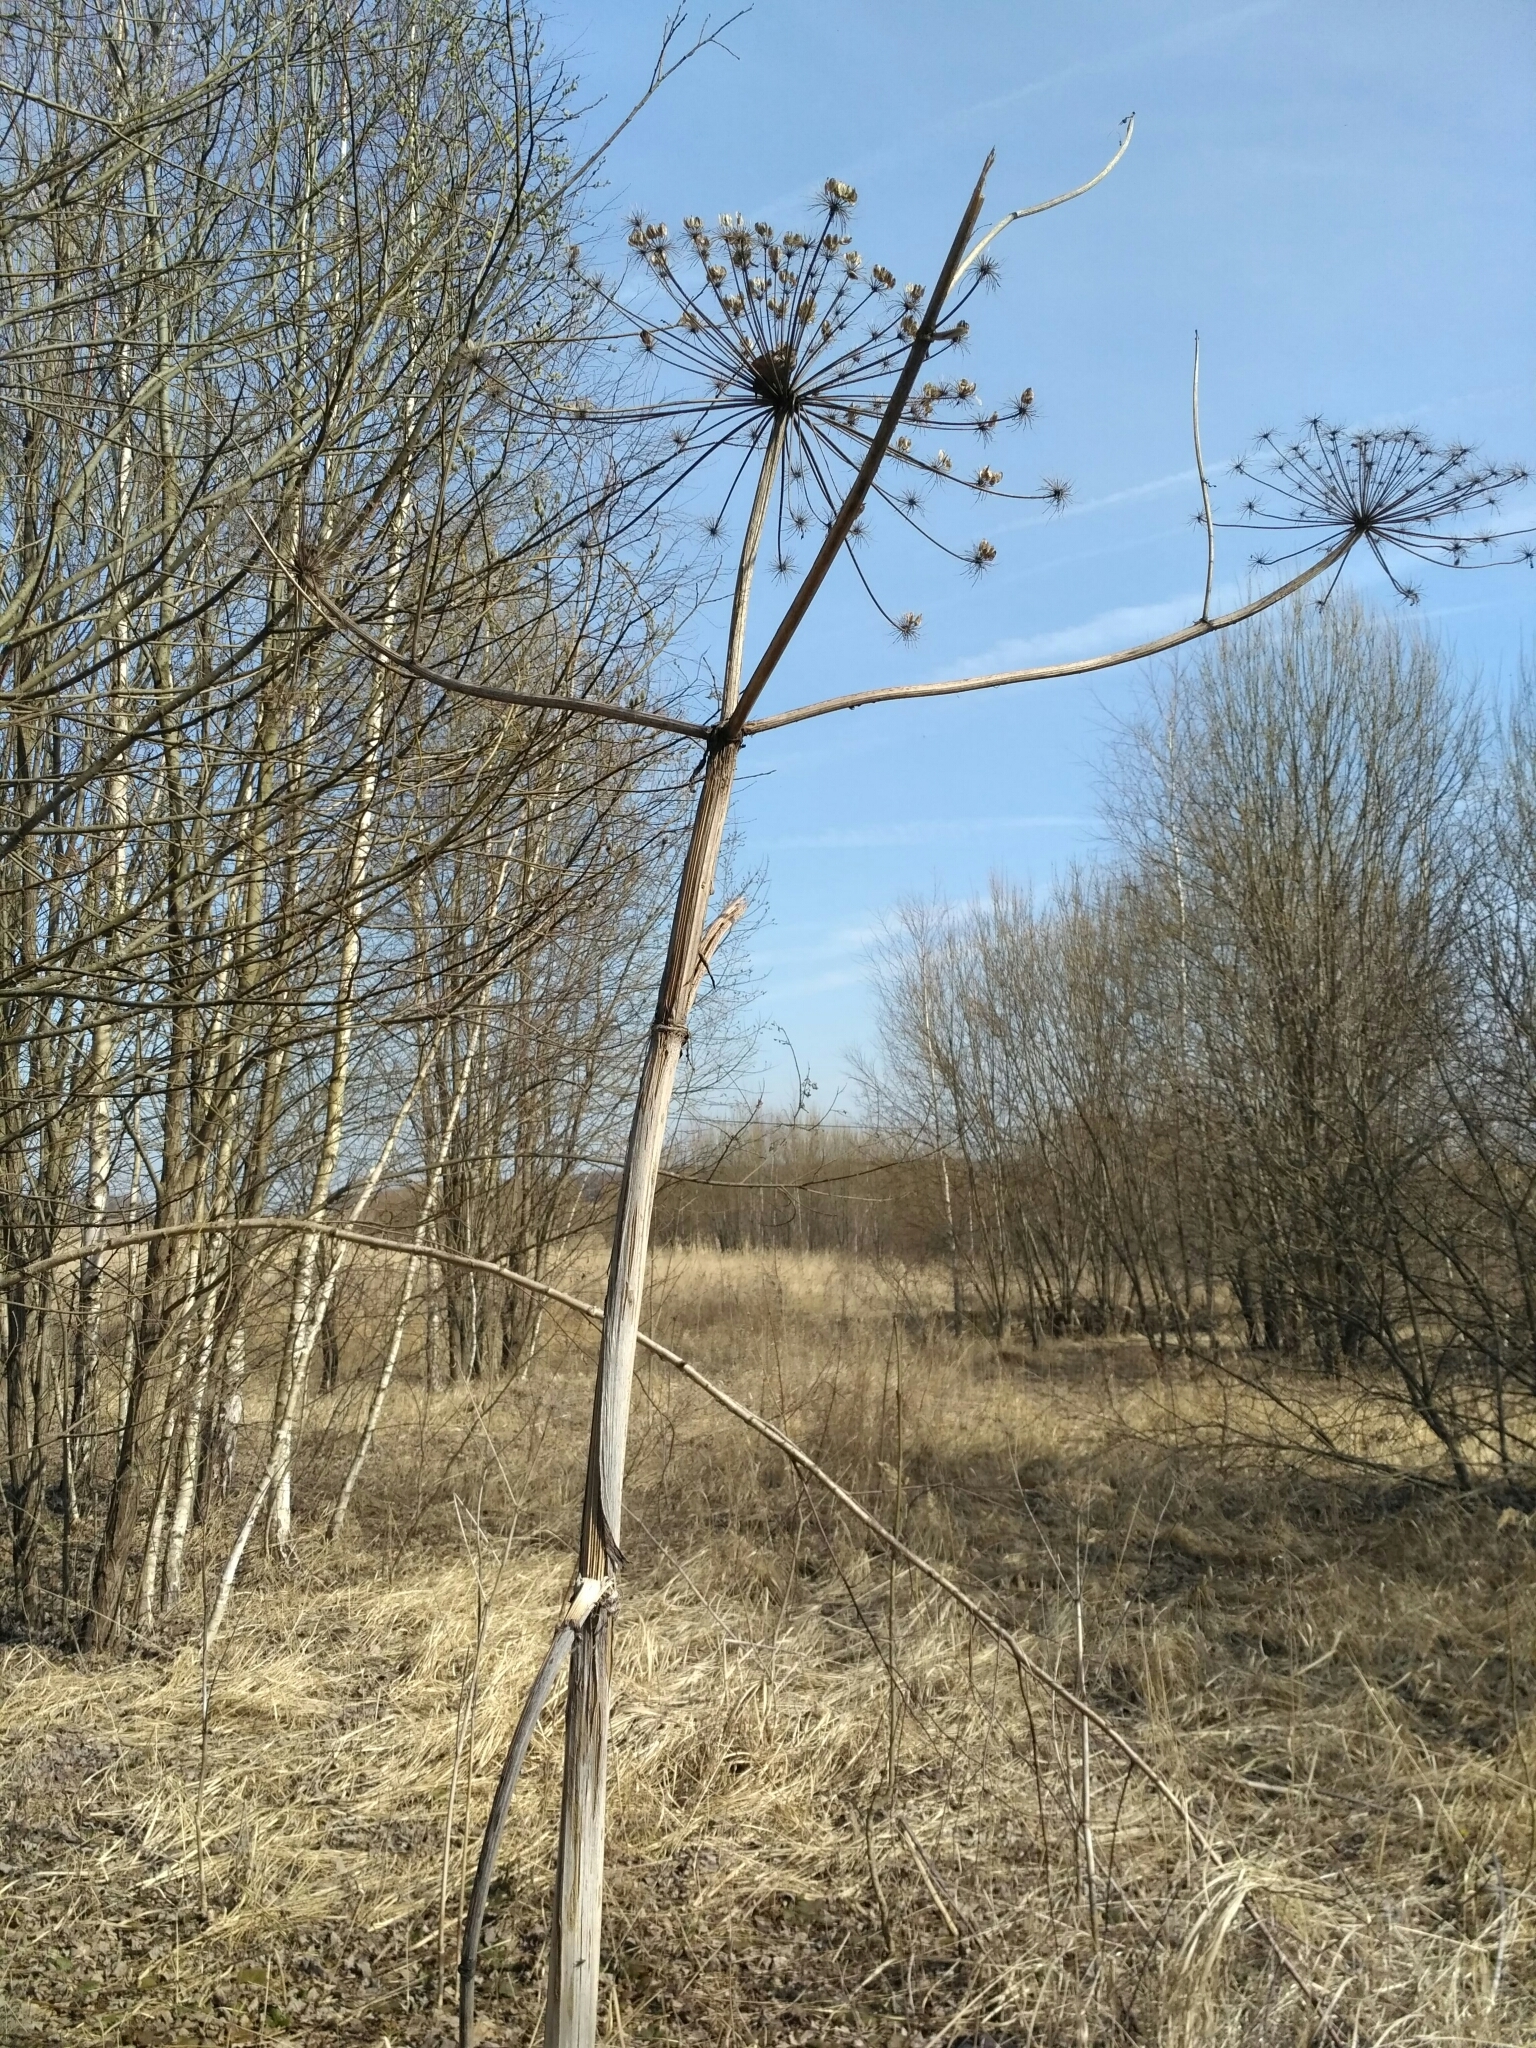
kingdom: Plantae
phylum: Tracheophyta
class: Magnoliopsida
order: Apiales
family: Apiaceae
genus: Heracleum
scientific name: Heracleum sosnowskyi
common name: Sosnowsky's hogweed
